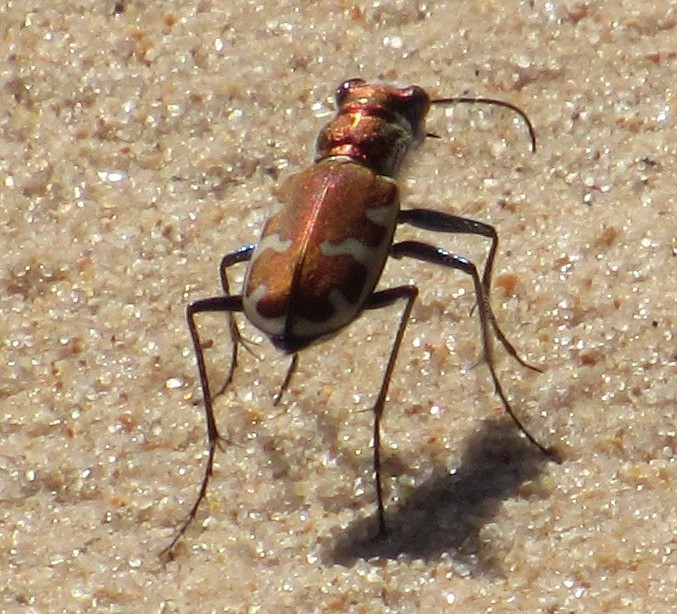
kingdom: Animalia
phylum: Arthropoda
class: Insecta
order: Coleoptera
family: Carabidae
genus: Cicindela
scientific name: Cicindela formosa
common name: Big sand tiger beetle
